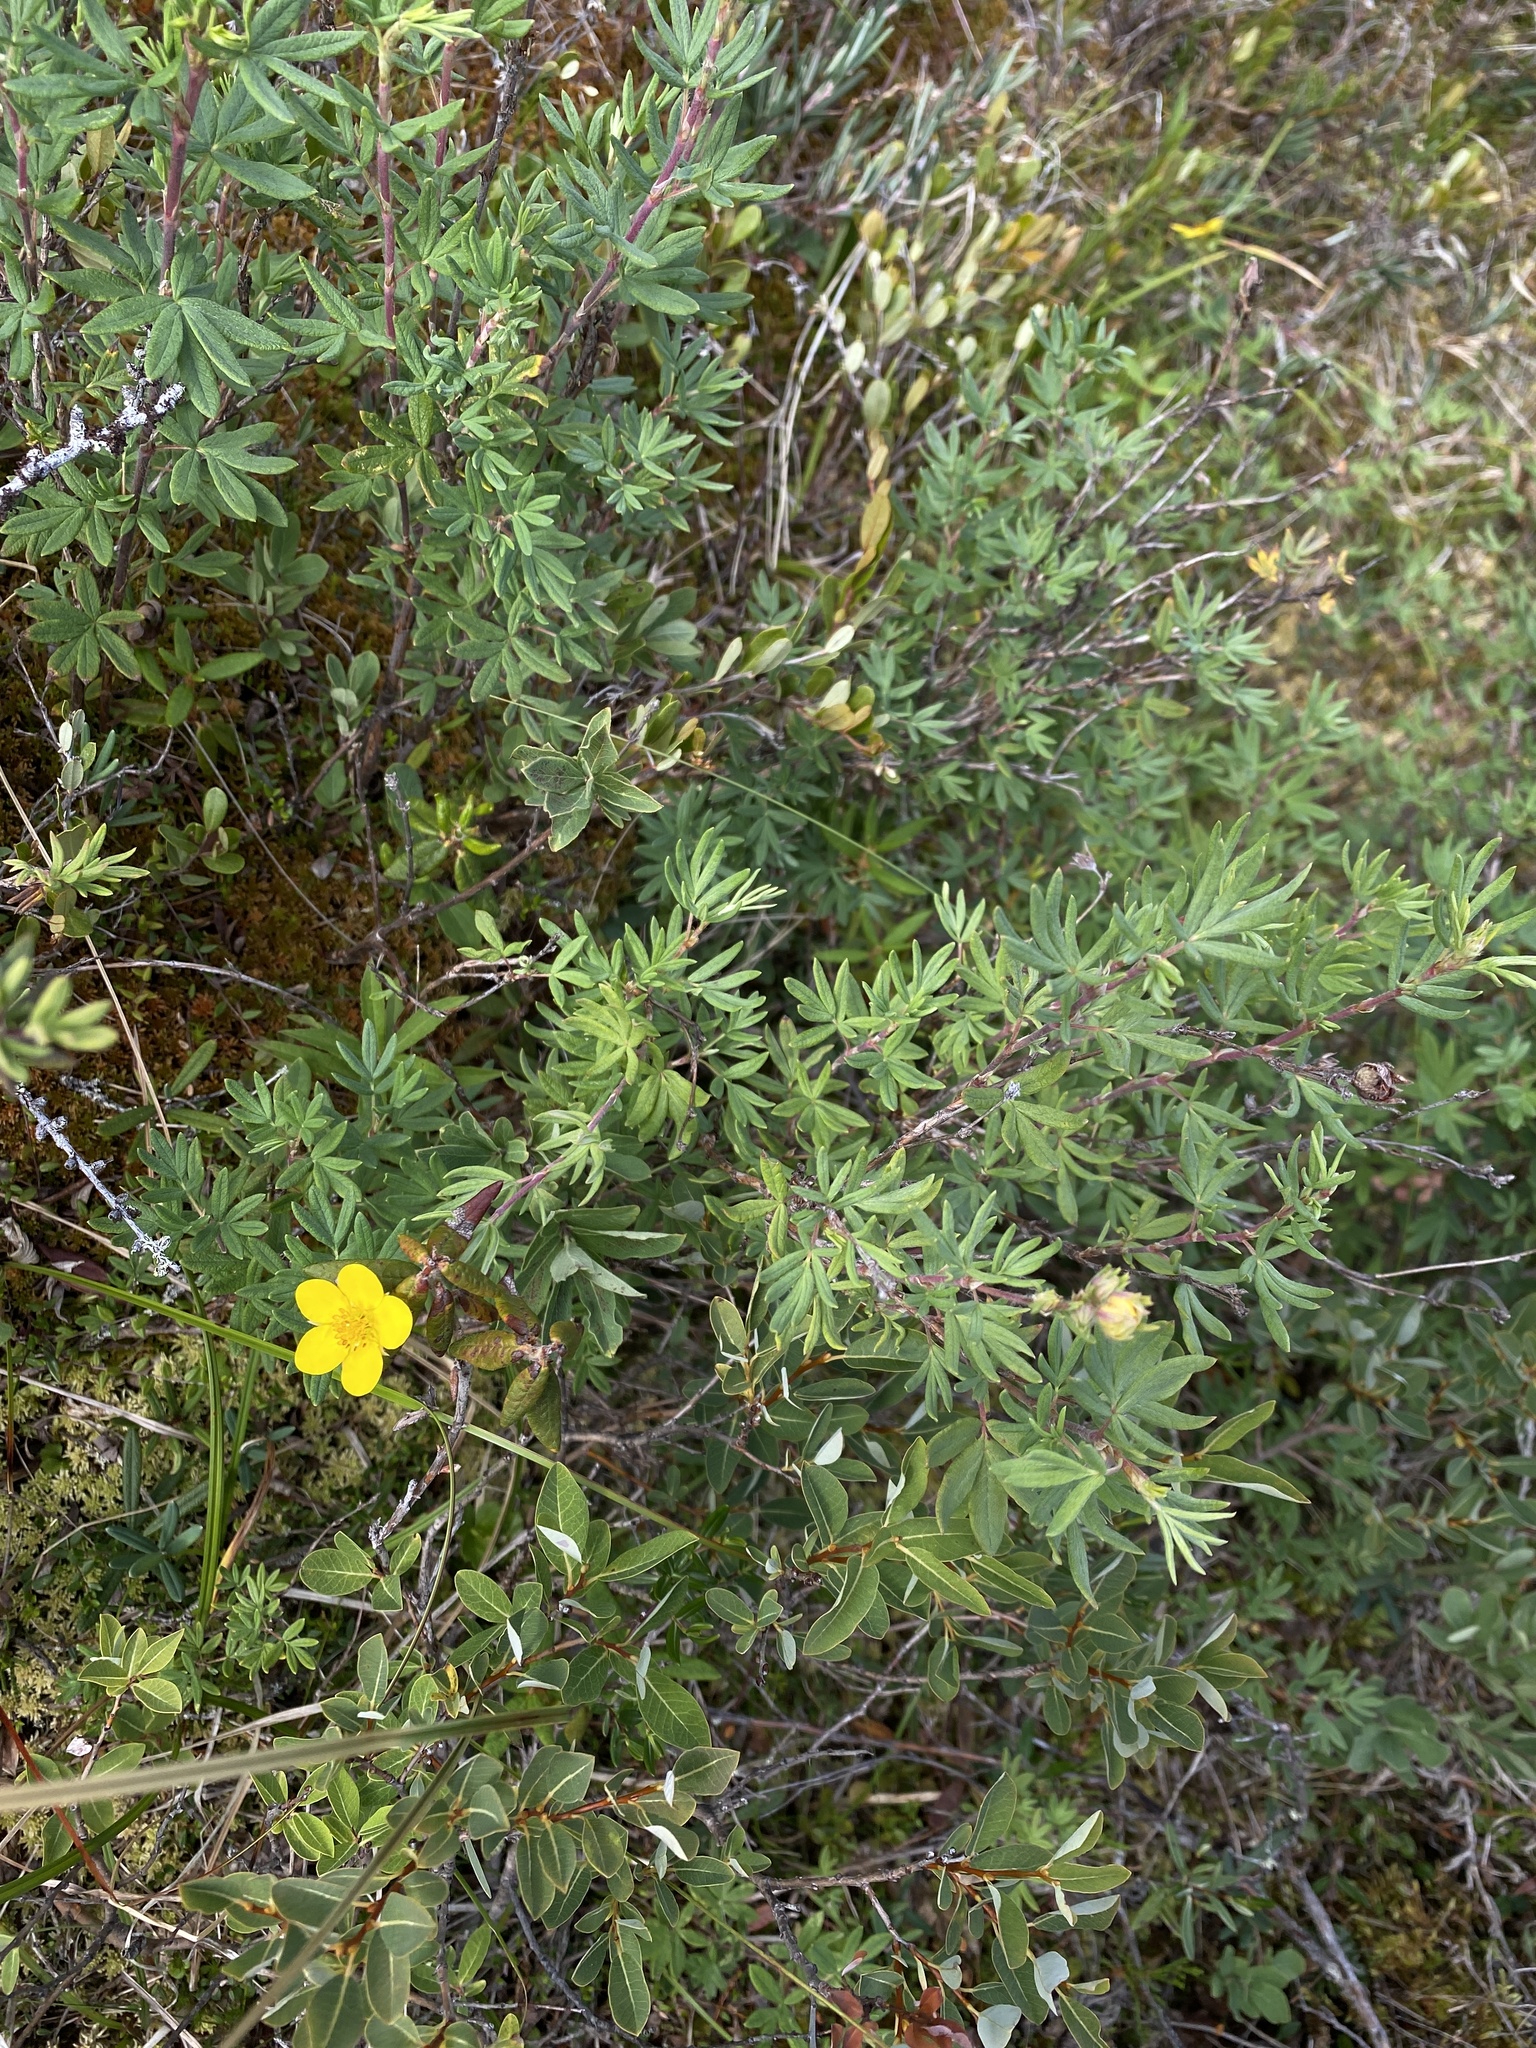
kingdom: Plantae
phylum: Tracheophyta
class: Magnoliopsida
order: Rosales
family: Rosaceae
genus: Dasiphora
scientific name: Dasiphora fruticosa
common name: Shrubby cinquefoil
